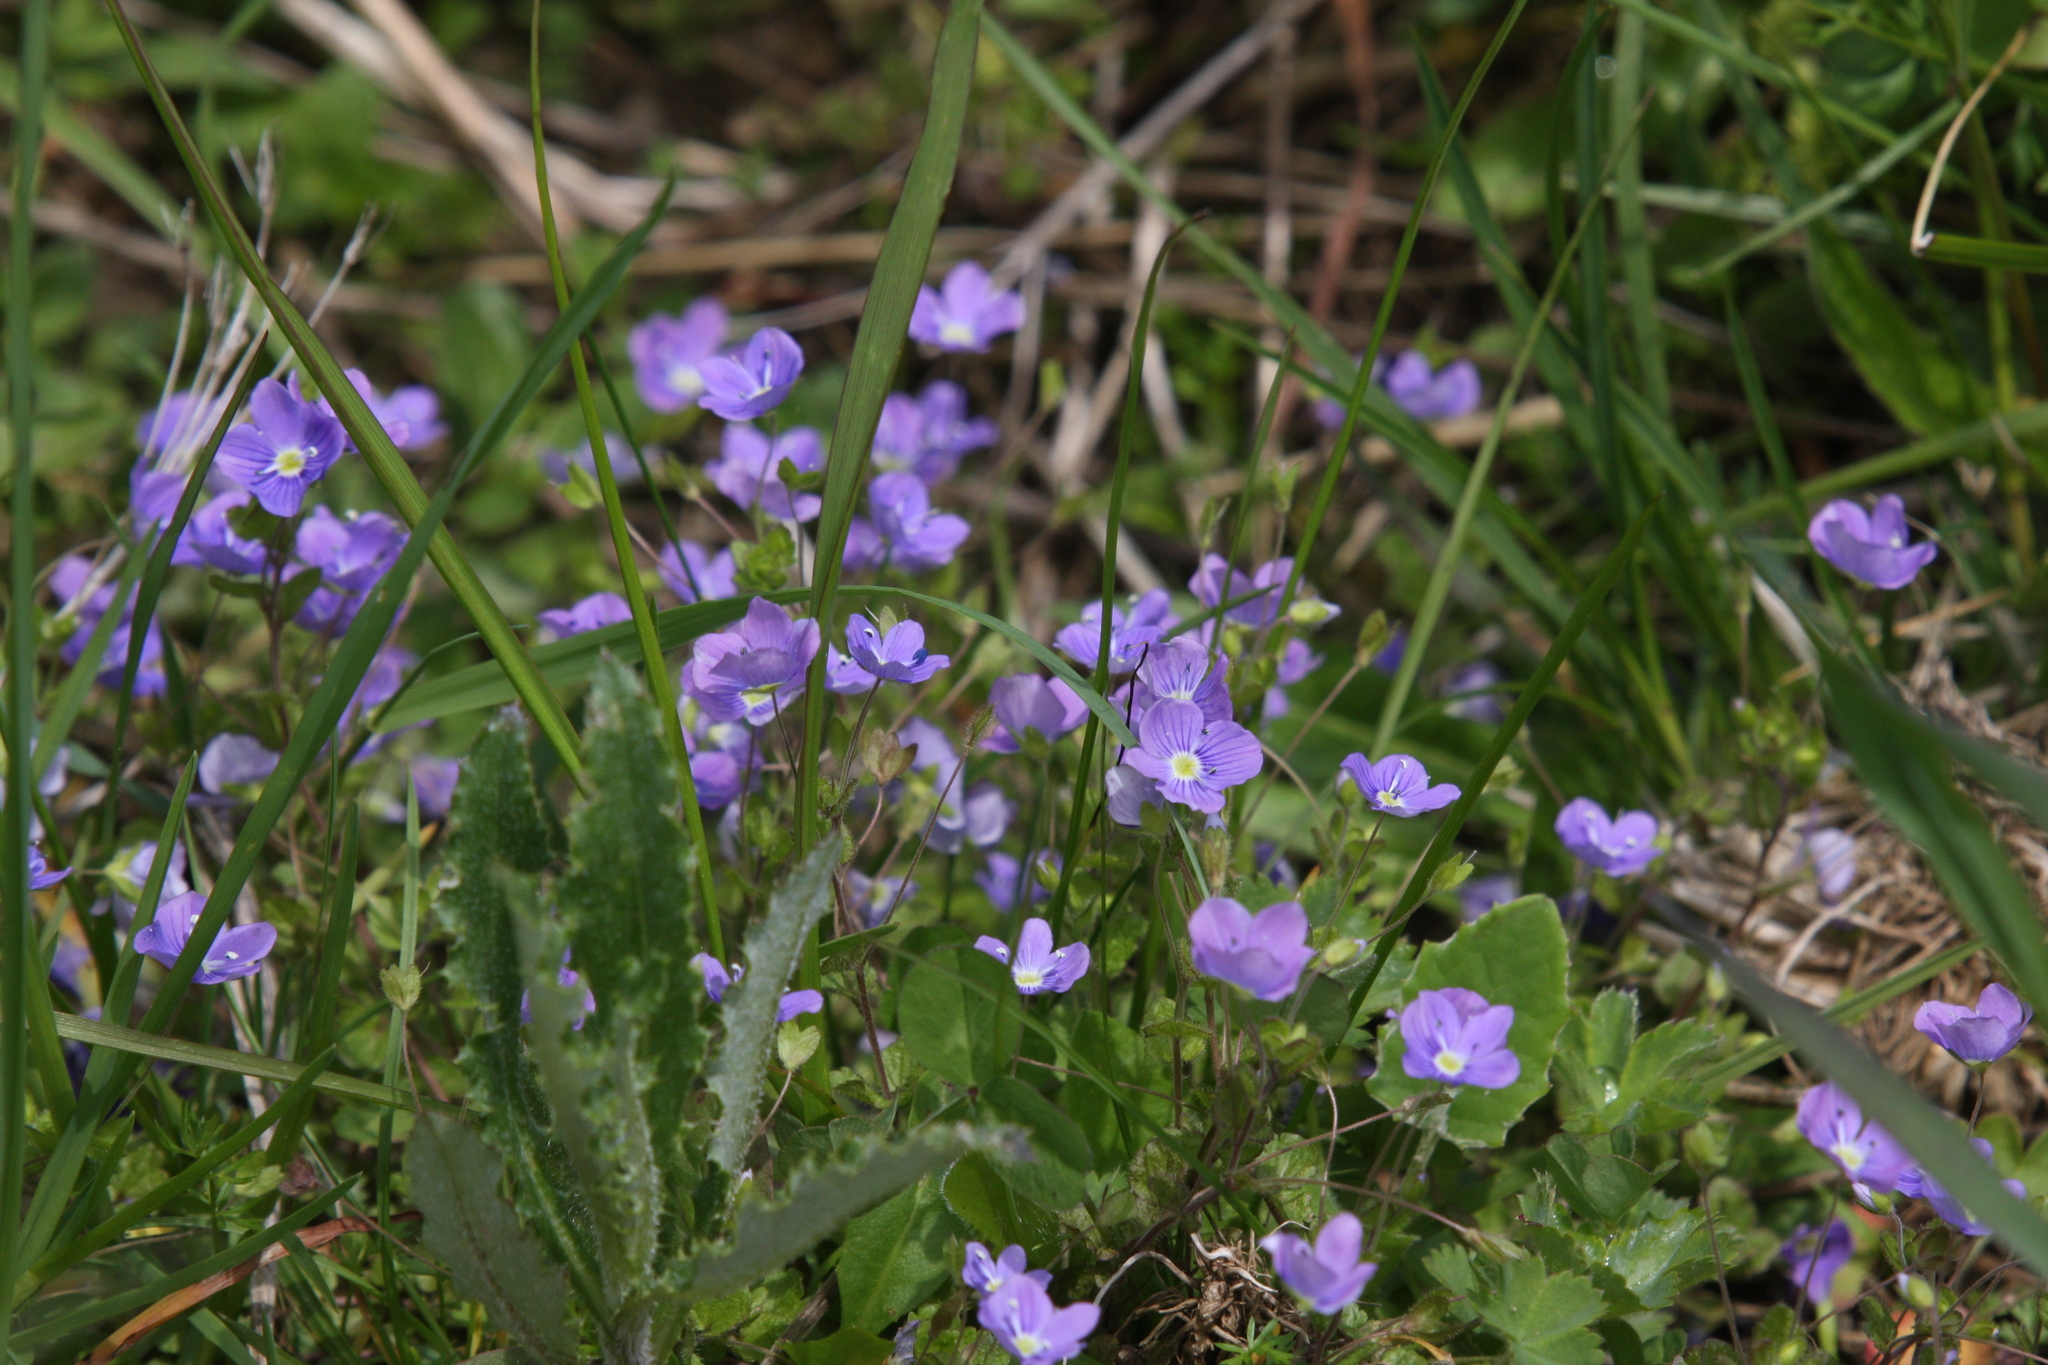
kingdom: Plantae
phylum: Tracheophyta
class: Magnoliopsida
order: Lamiales
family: Plantaginaceae
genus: Veronica
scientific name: Veronica filiformis
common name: Slender speedwell
